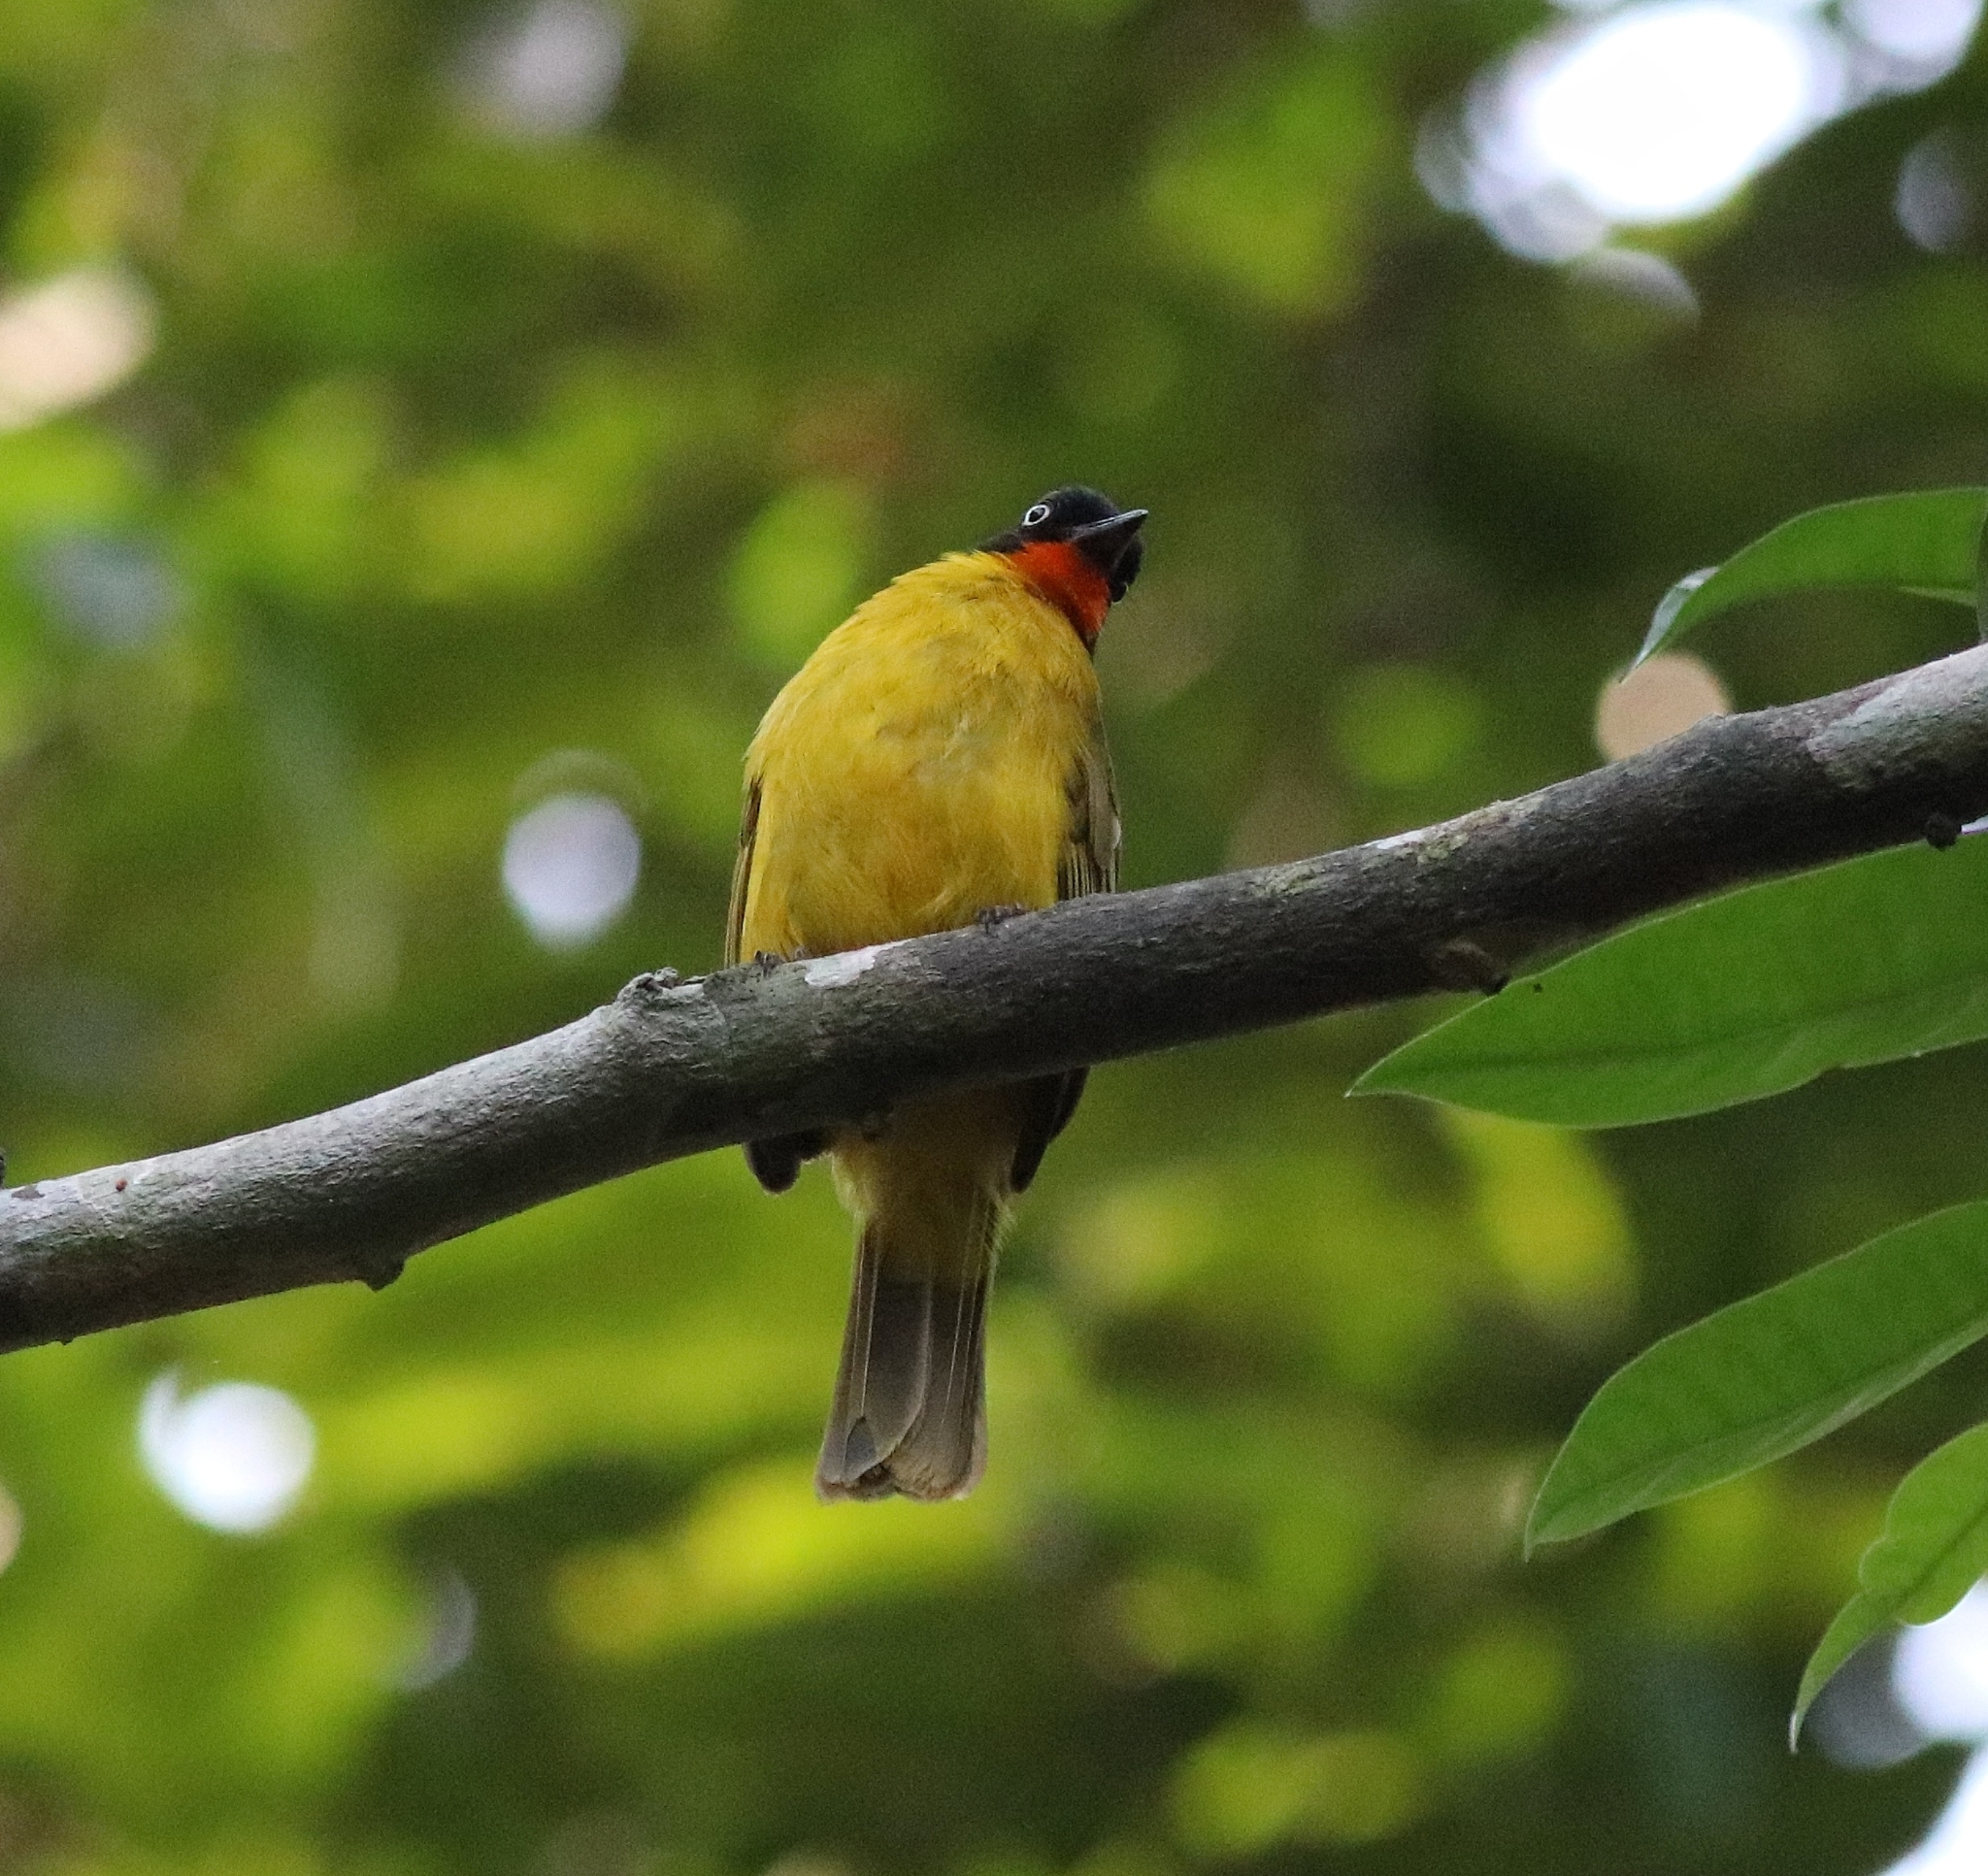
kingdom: Animalia
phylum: Chordata
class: Aves
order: Passeriformes
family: Pycnonotidae
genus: Pycnonotus
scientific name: Pycnonotus gularis
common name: Flame-throated bulbul
